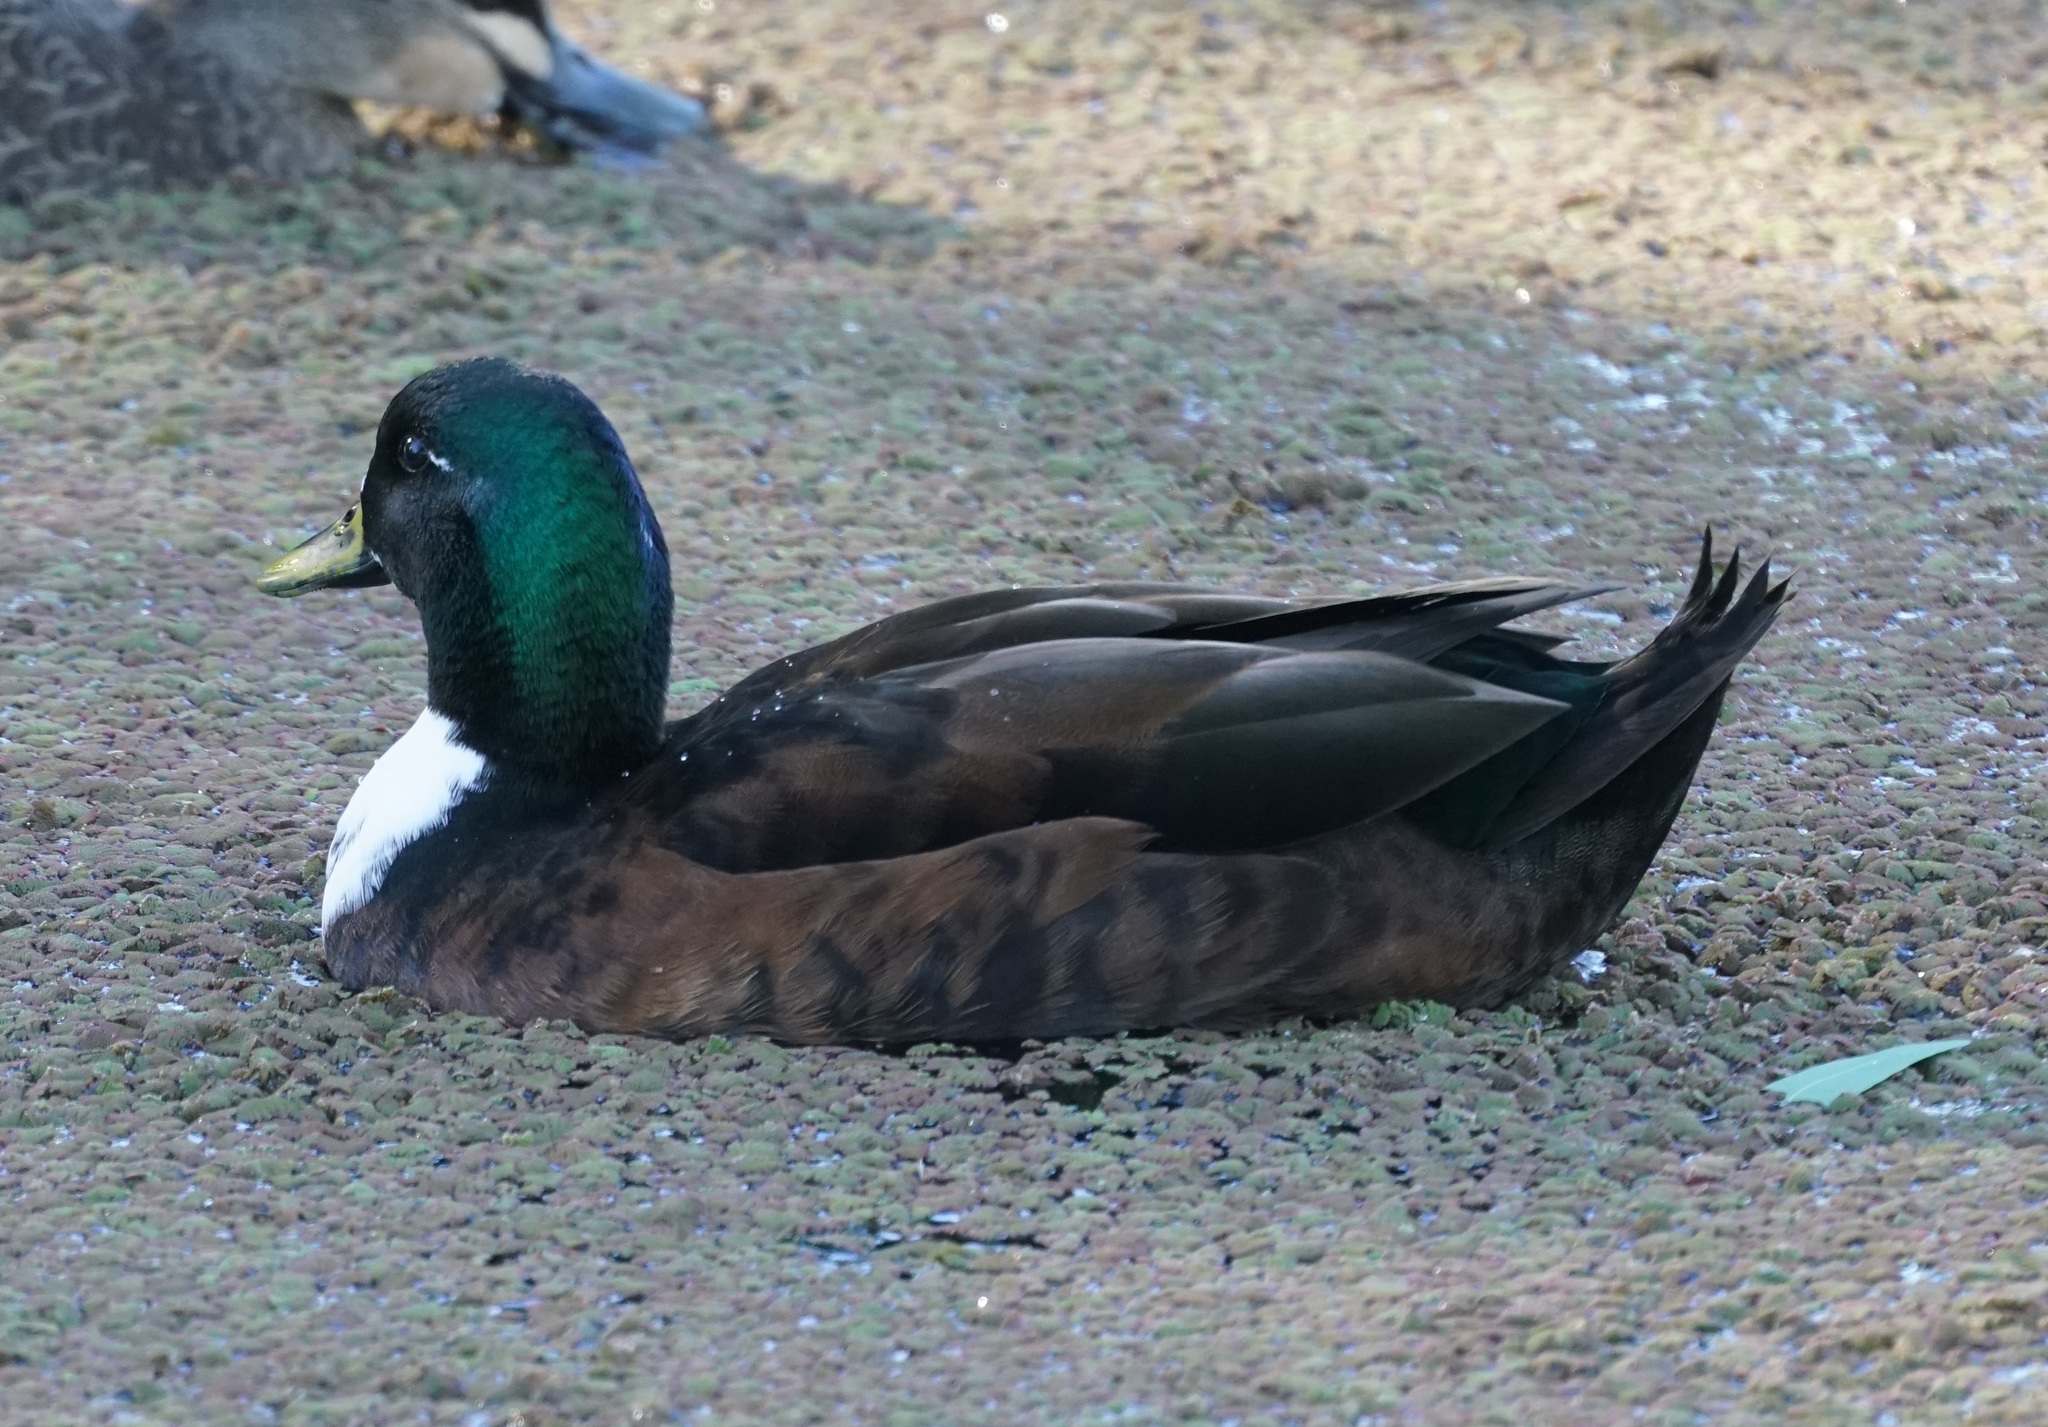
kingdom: Animalia
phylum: Chordata
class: Aves
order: Anseriformes
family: Anatidae
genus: Anas
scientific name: Anas platyrhynchos
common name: Mallard
